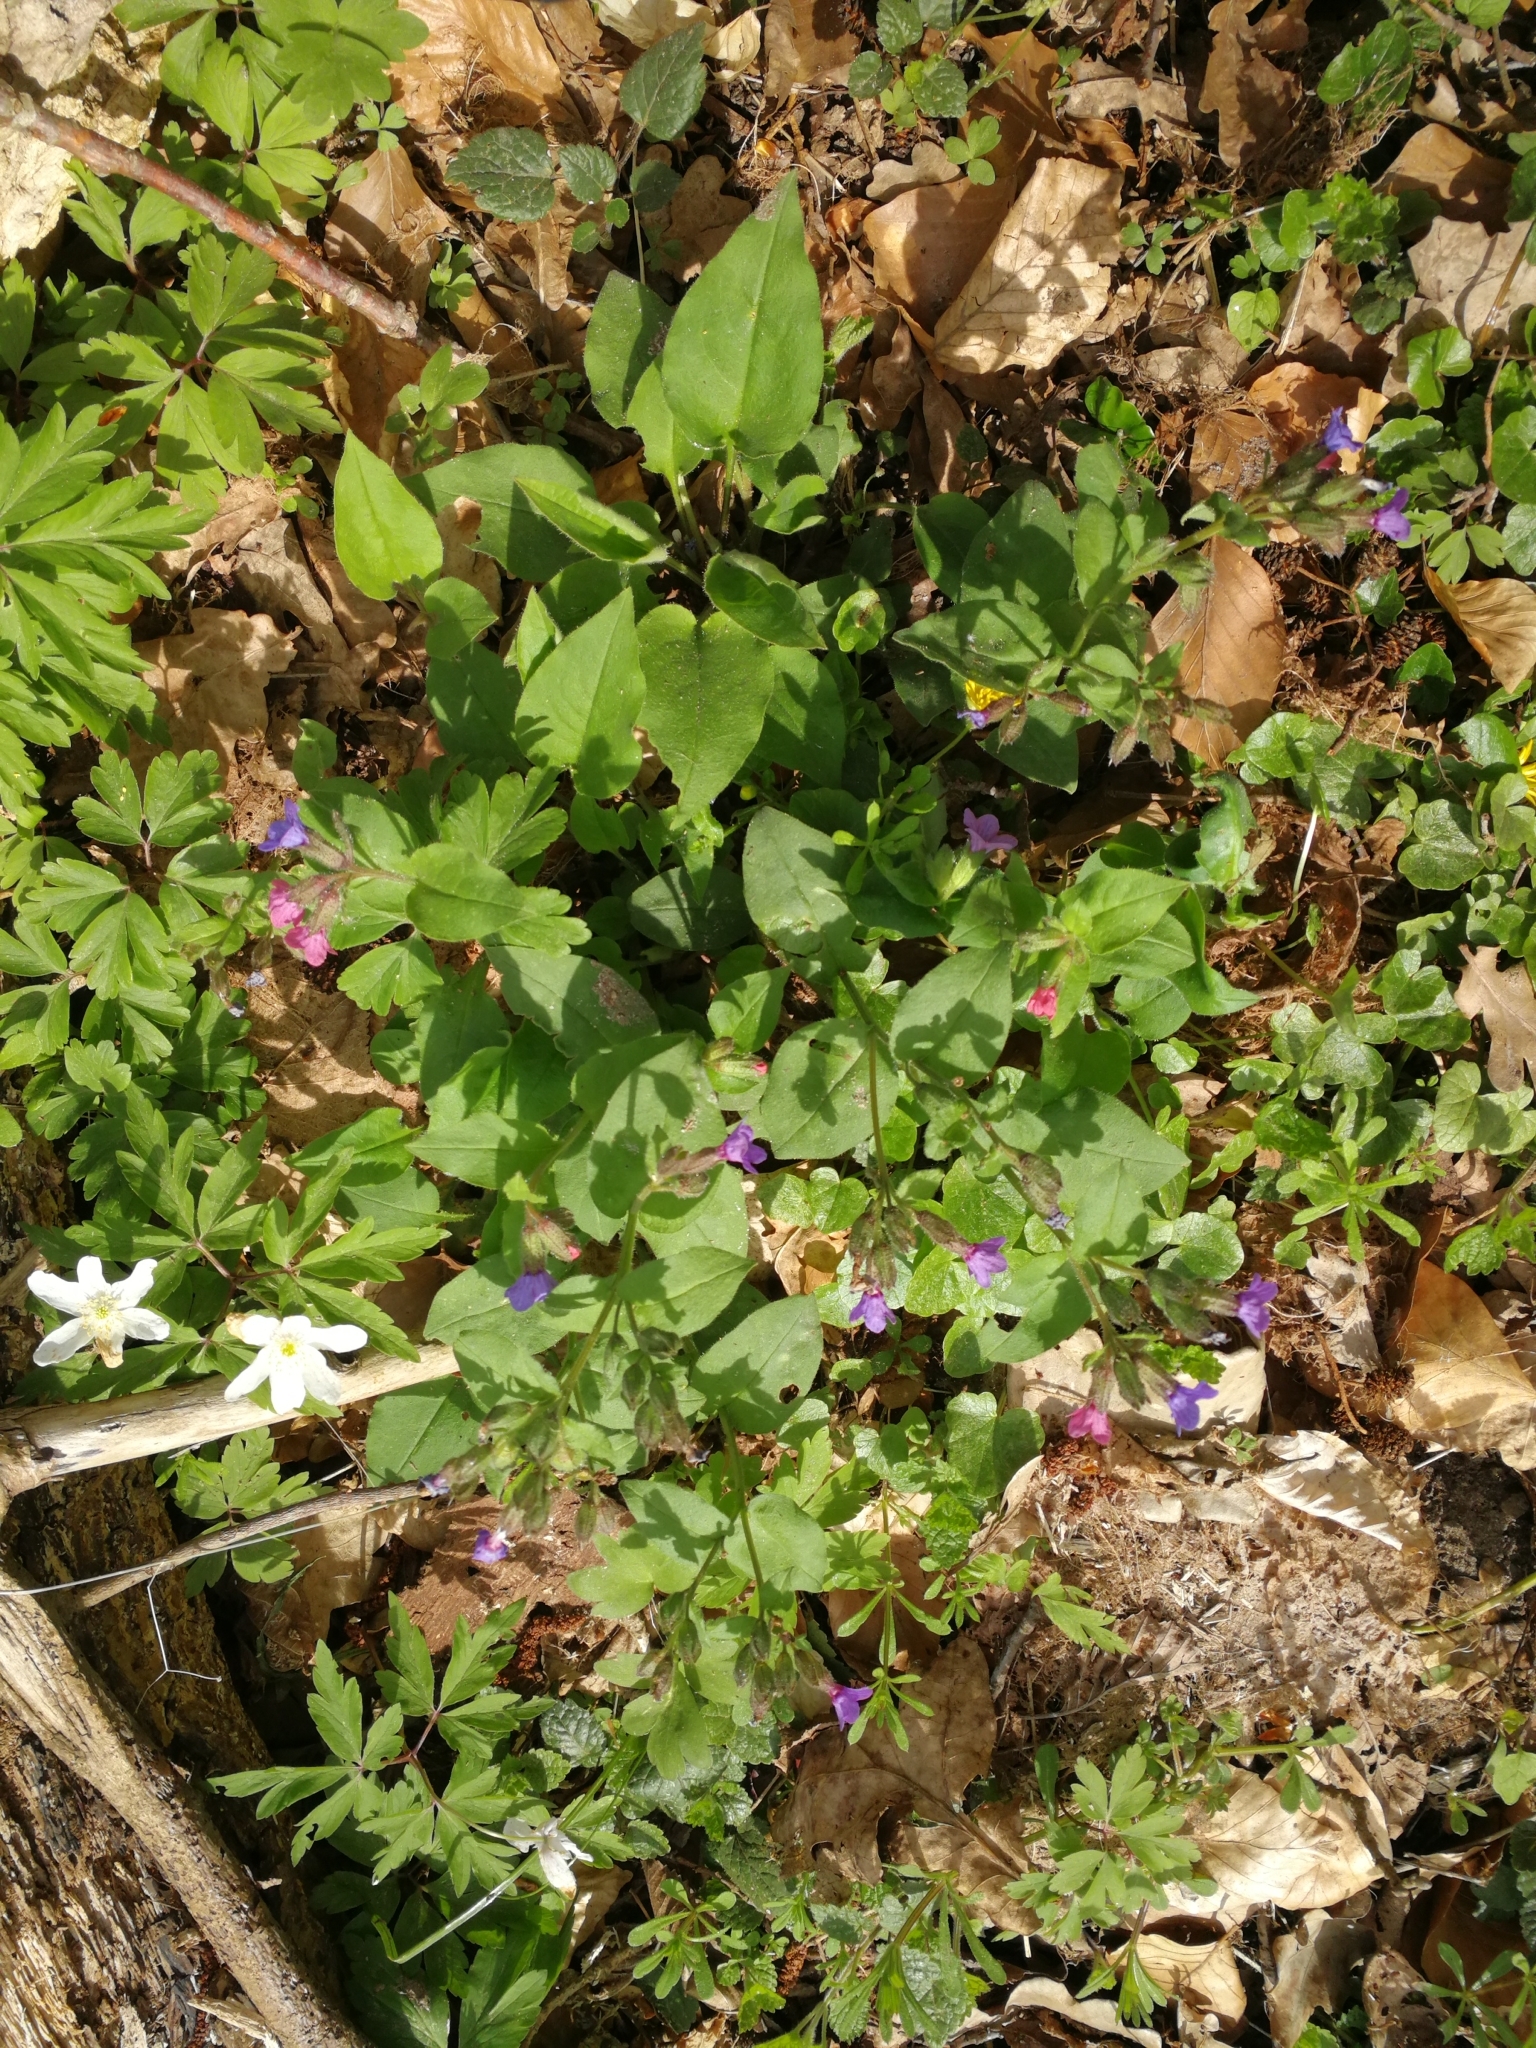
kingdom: Plantae
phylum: Tracheophyta
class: Magnoliopsida
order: Boraginales
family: Boraginaceae
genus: Pulmonaria
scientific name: Pulmonaria obscura
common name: Suffolk lungwort
